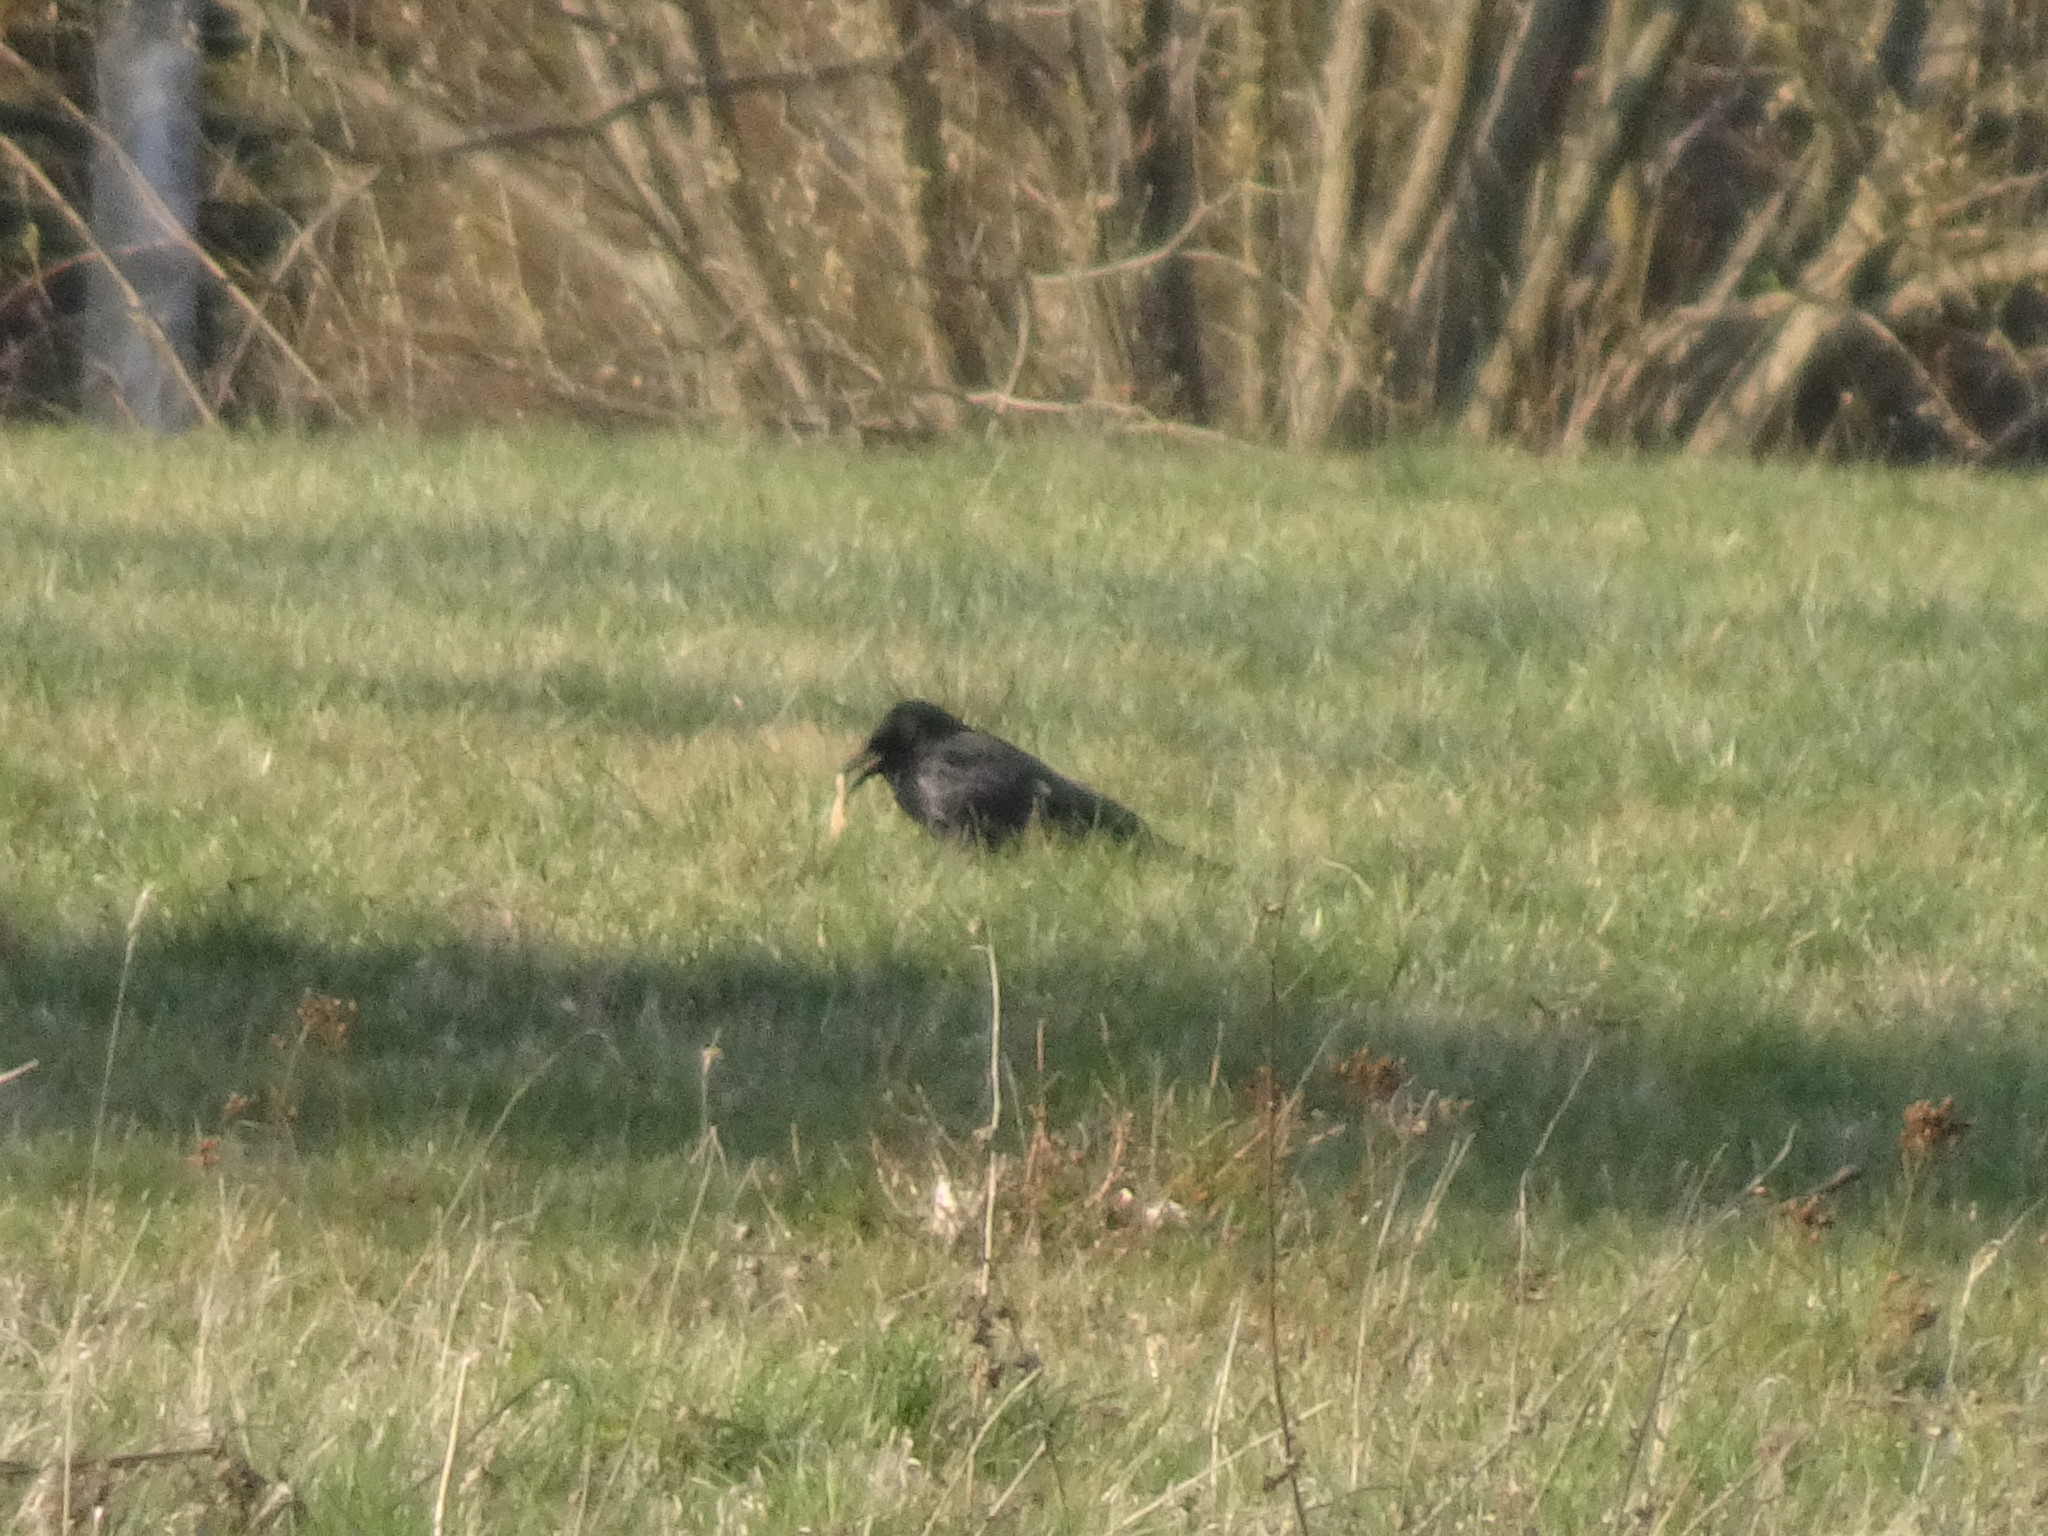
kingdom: Animalia
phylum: Chordata
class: Aves
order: Passeriformes
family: Corvidae
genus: Corvus
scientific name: Corvus corone
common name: Carrion crow
